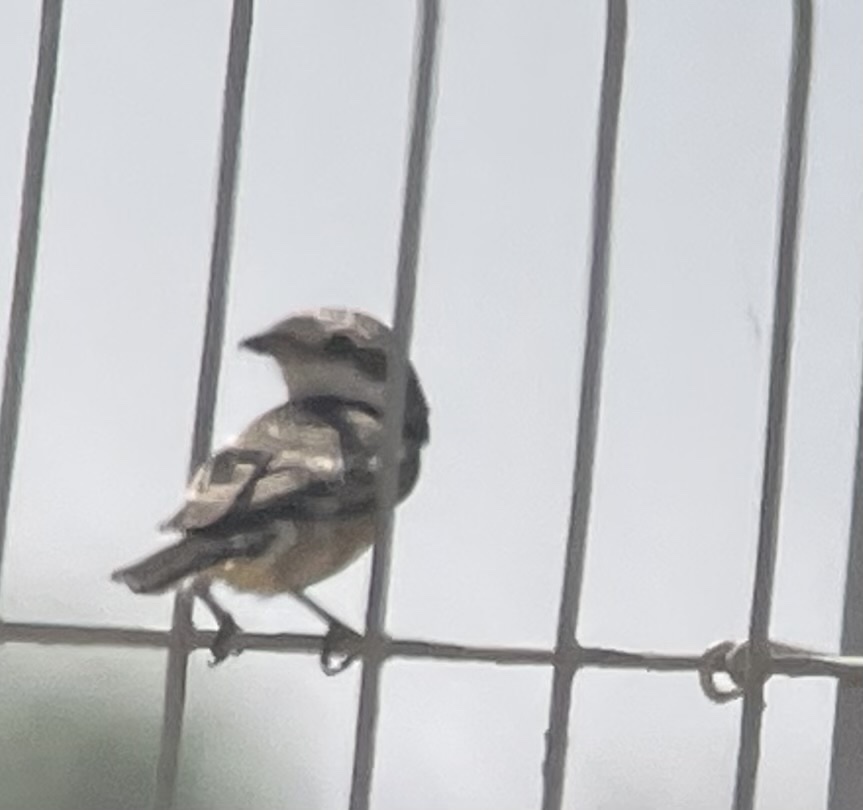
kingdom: Animalia
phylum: Chordata
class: Aves
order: Passeriformes
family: Laniidae
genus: Lanius
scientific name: Lanius nubicus
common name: Masked shrike
